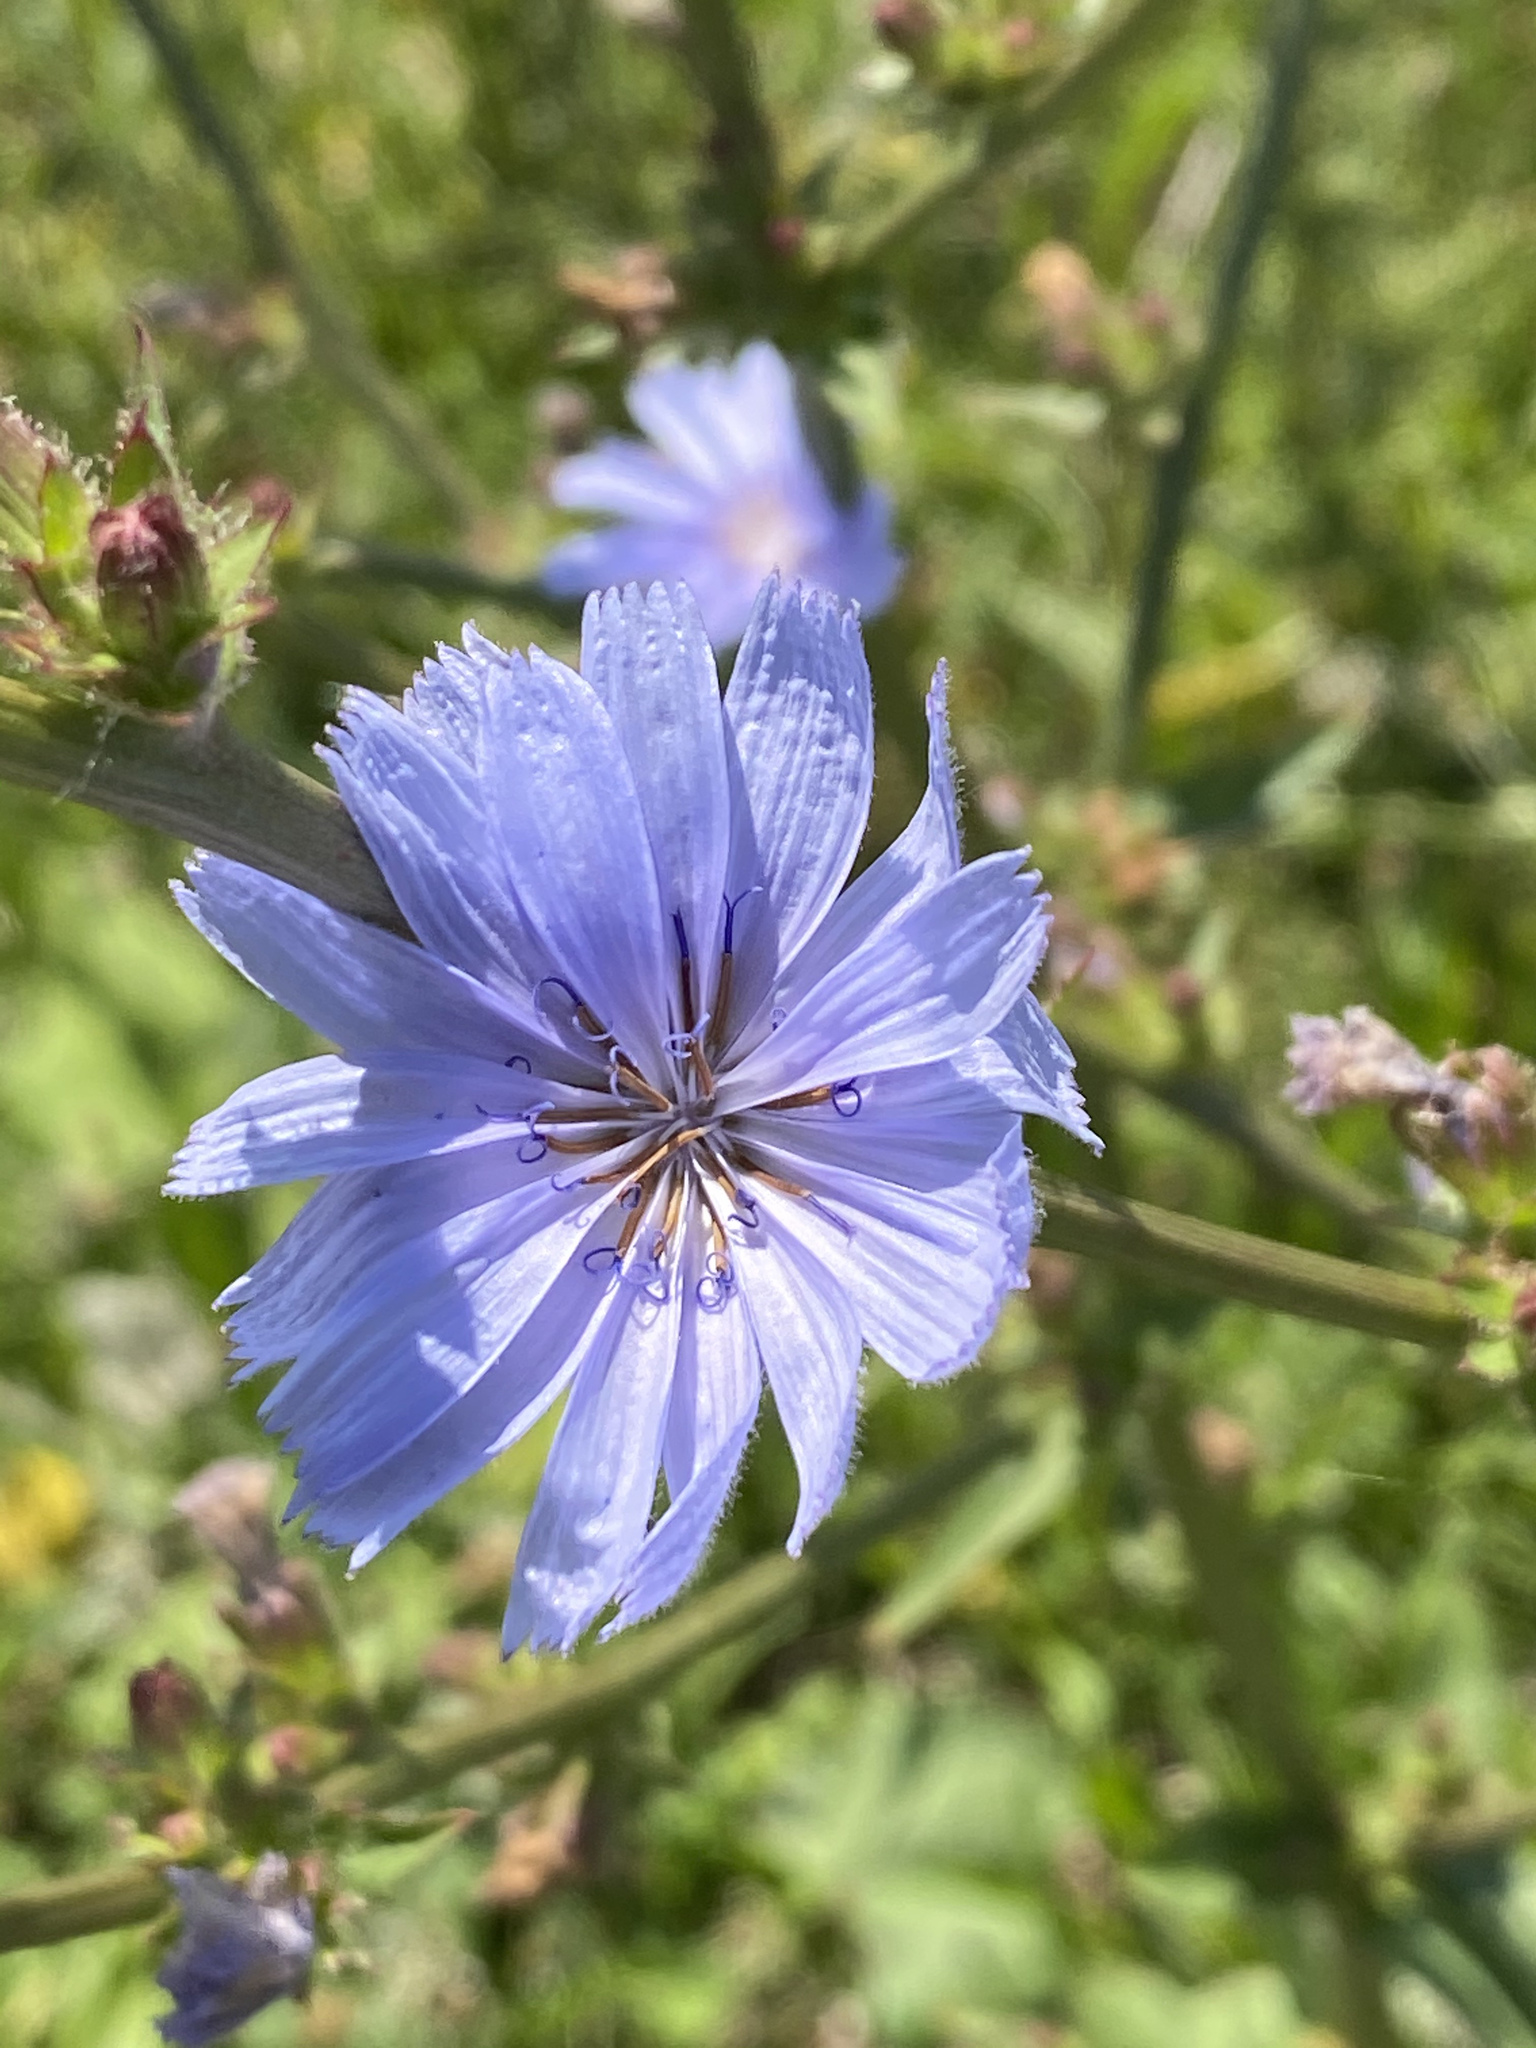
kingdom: Plantae
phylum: Tracheophyta
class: Magnoliopsida
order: Asterales
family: Asteraceae
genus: Cichorium
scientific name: Cichorium intybus
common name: Chicory
